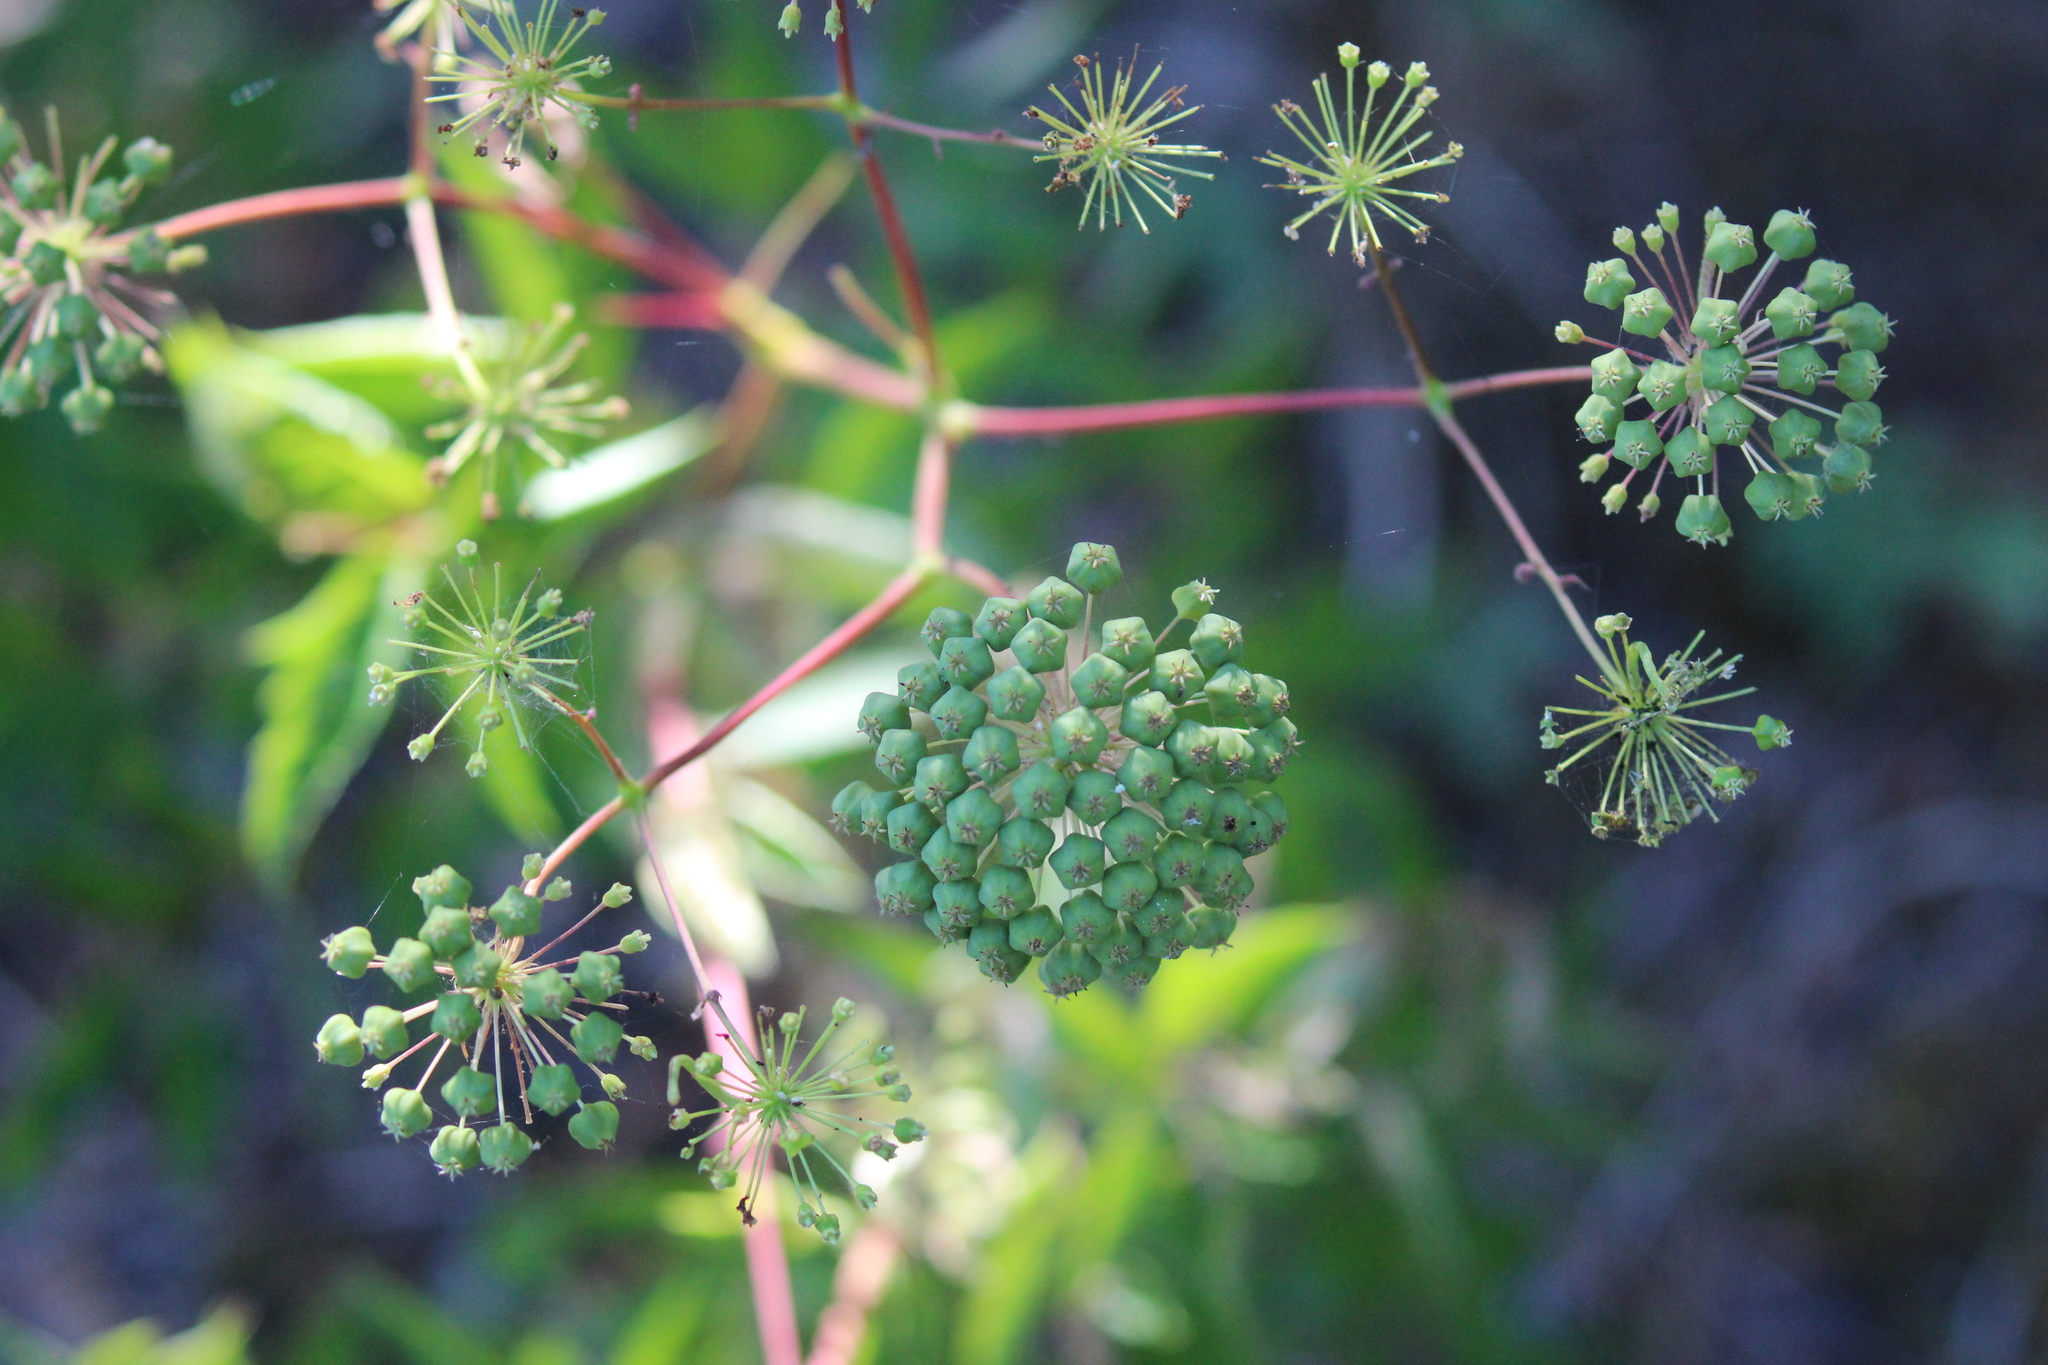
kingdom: Plantae
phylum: Tracheophyta
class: Magnoliopsida
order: Apiales
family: Araliaceae
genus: Aralia
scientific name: Aralia hispida
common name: Bristly sarsaparilla
